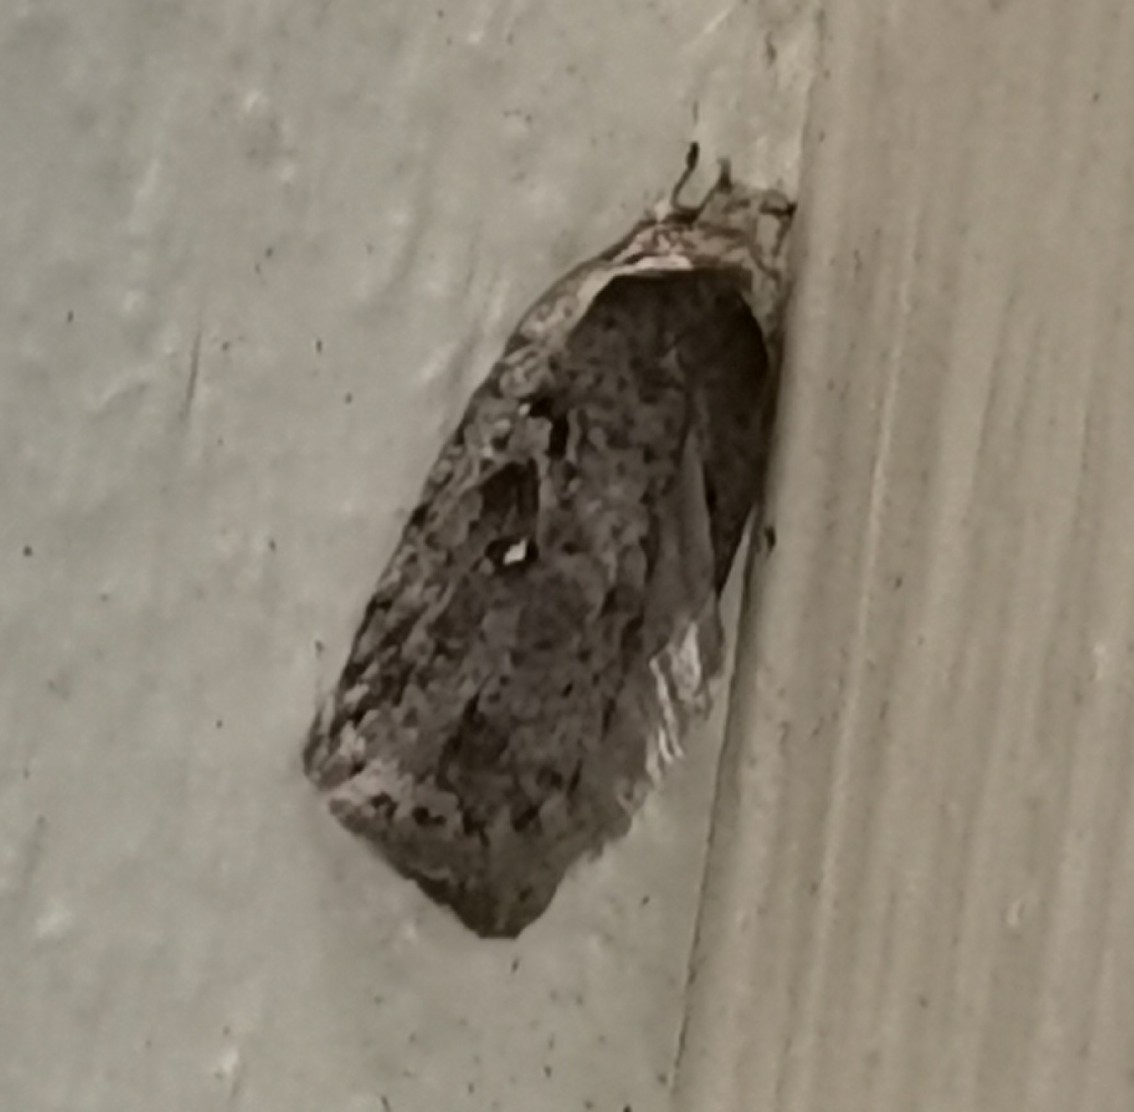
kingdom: Animalia
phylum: Arthropoda
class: Insecta
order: Lepidoptera
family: Depressariidae
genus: Exaeretia
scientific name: Exaeretia ciniflonella
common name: Scotch flat-body
